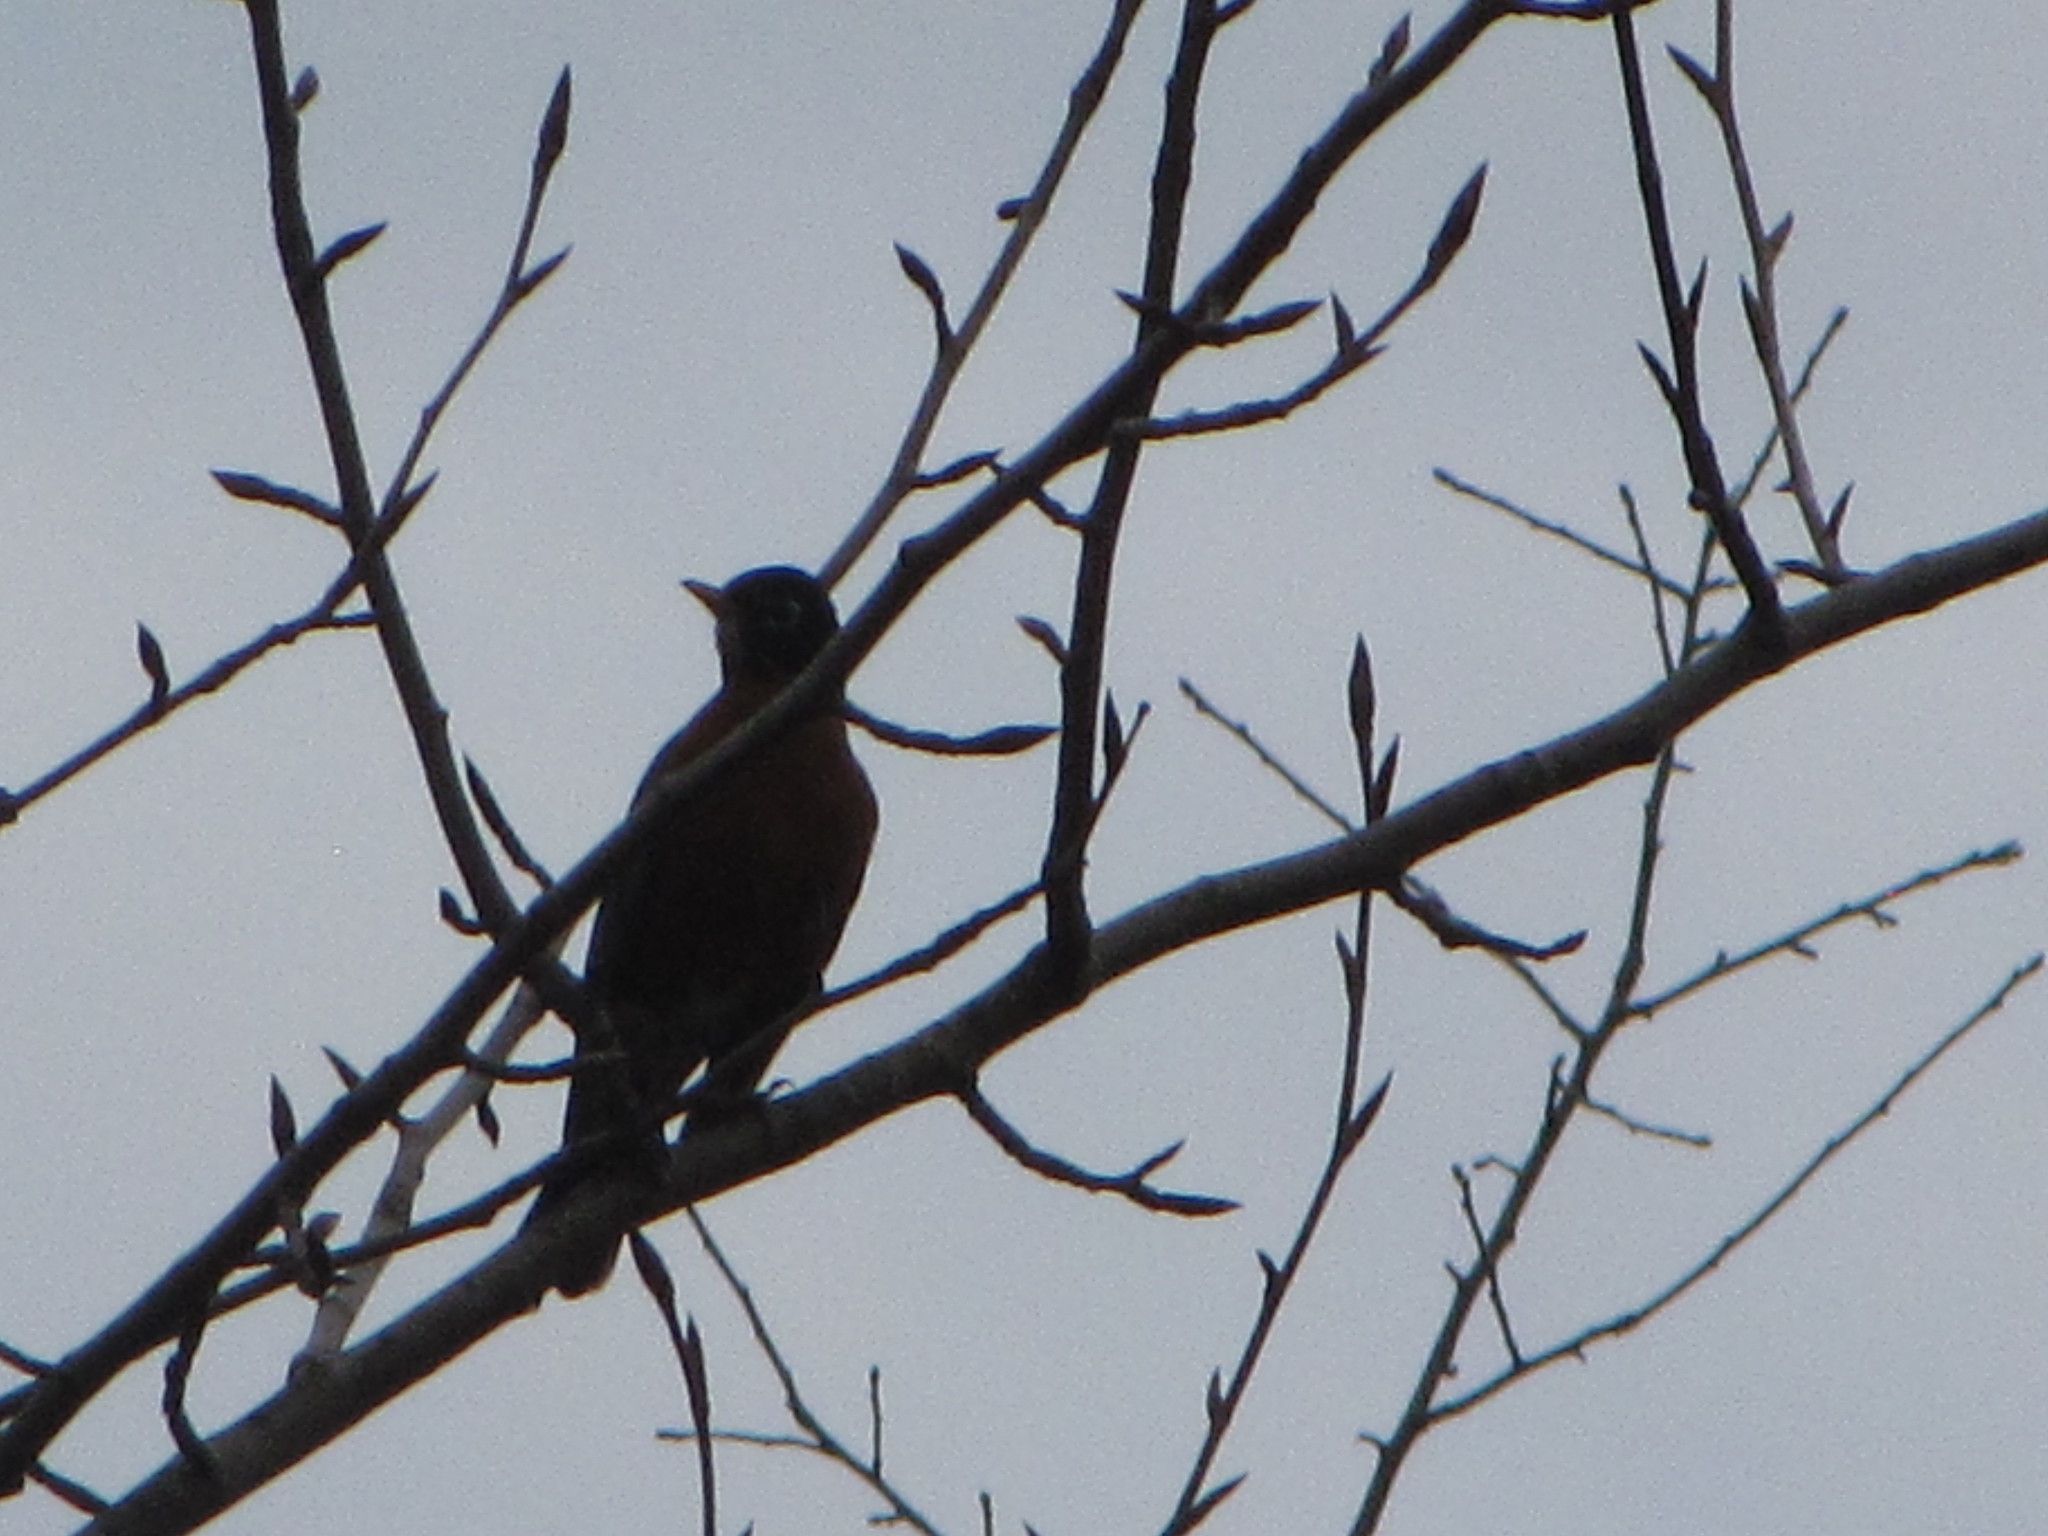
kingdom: Animalia
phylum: Chordata
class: Aves
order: Passeriformes
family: Turdidae
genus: Turdus
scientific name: Turdus migratorius
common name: American robin
